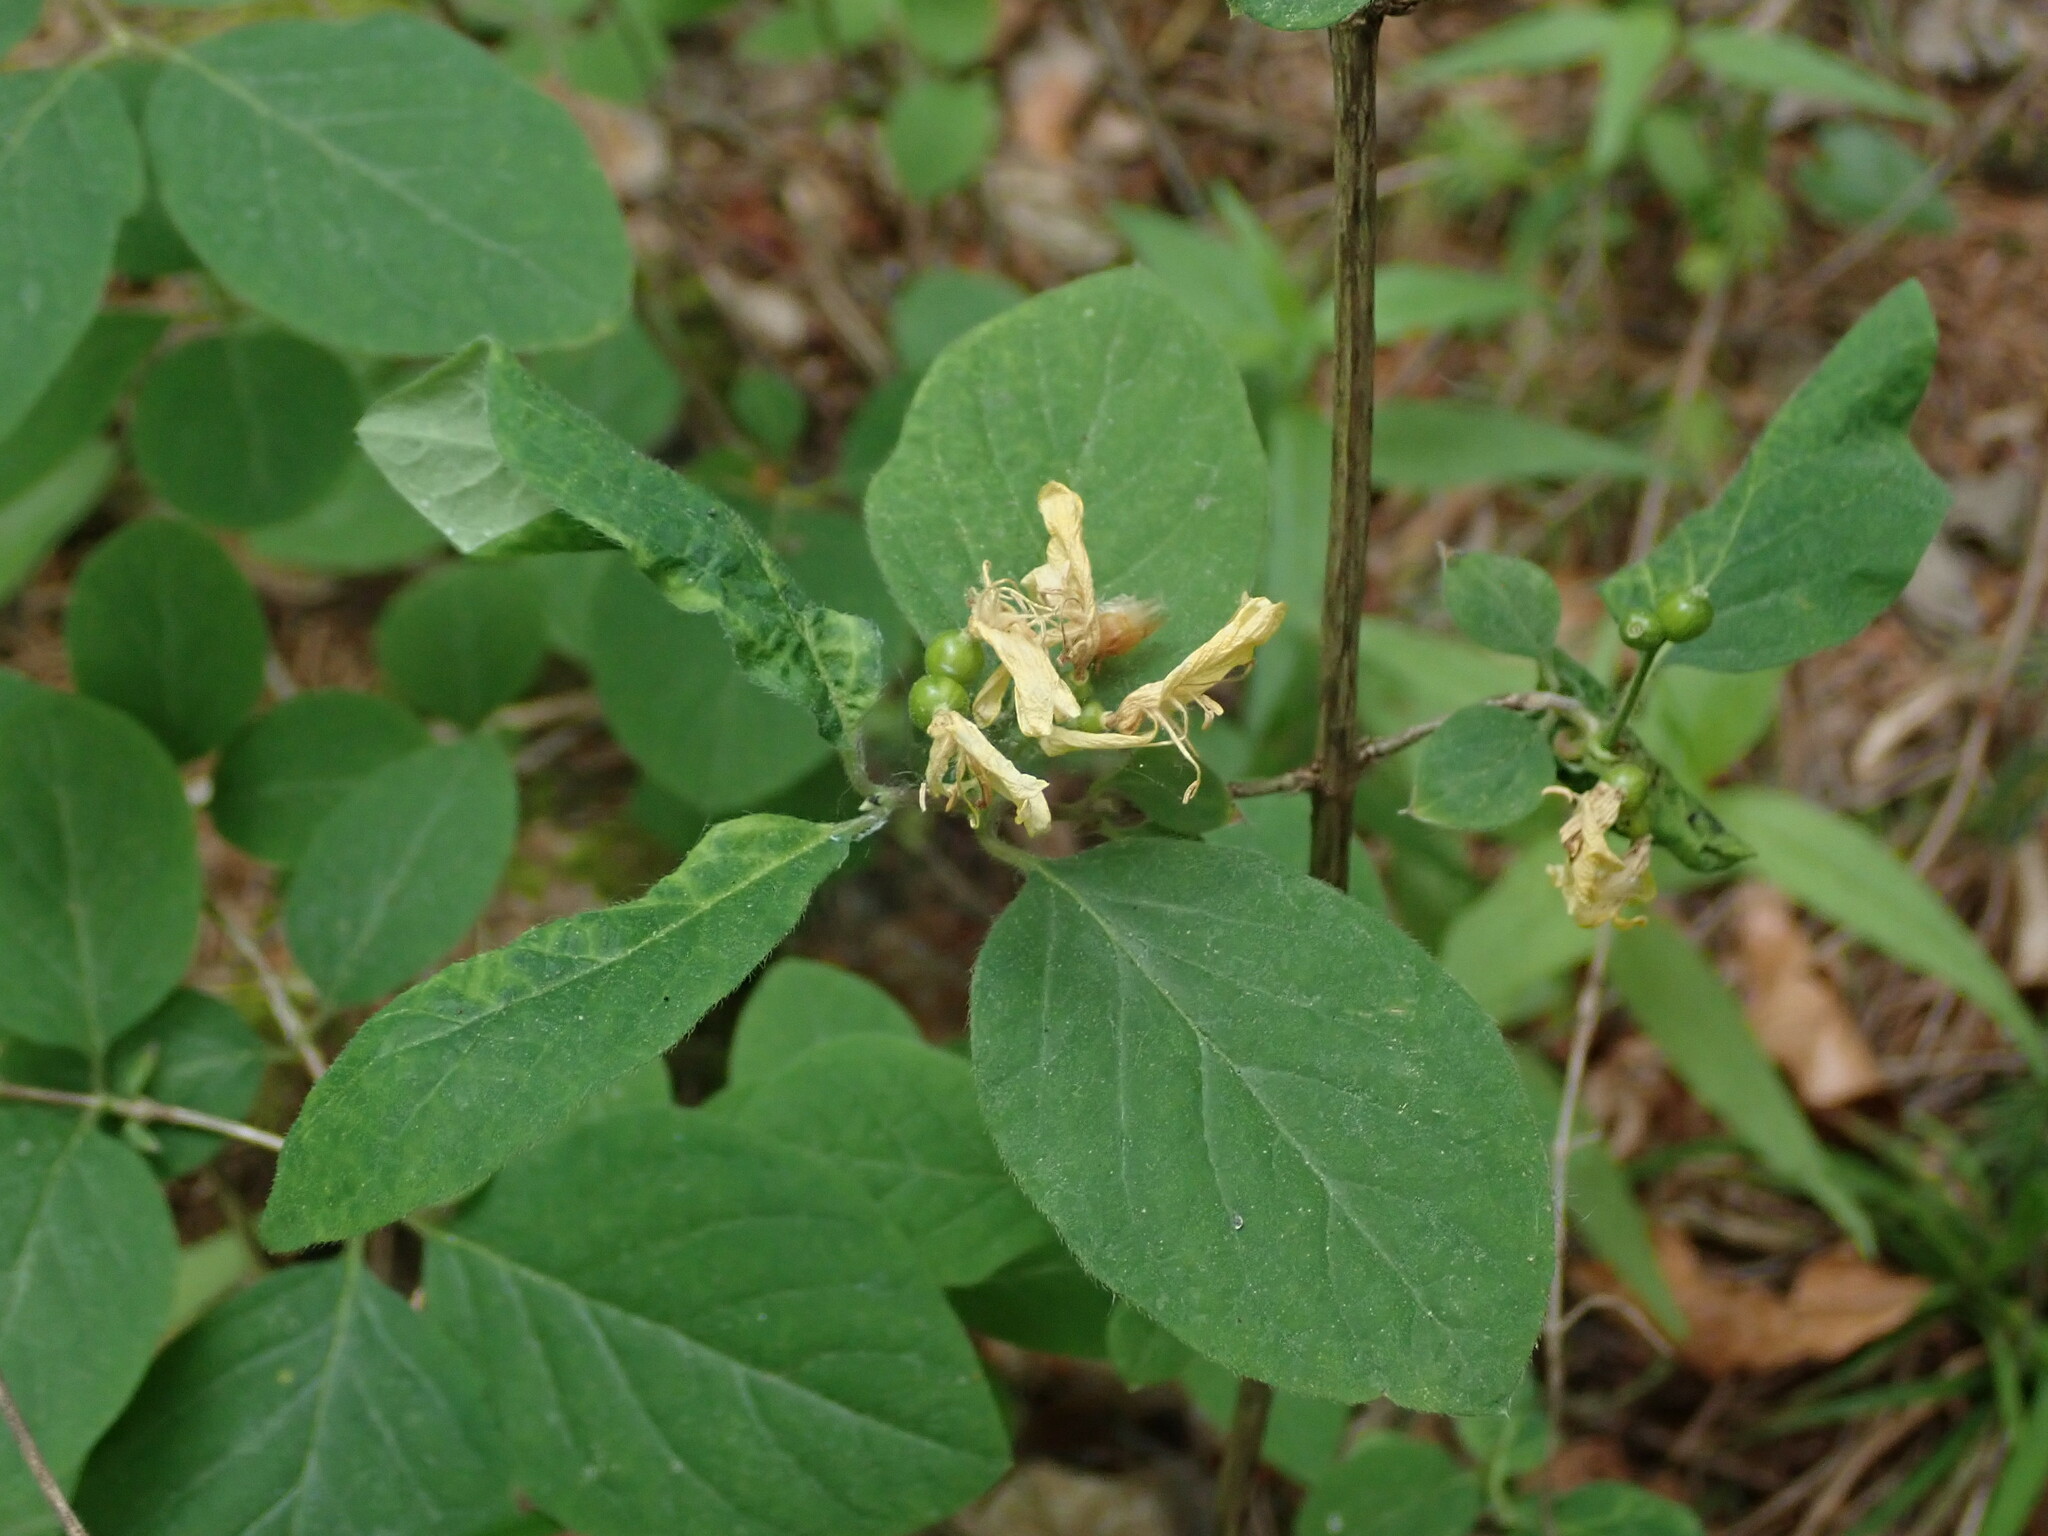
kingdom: Plantae
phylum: Tracheophyta
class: Magnoliopsida
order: Dipsacales
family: Caprifoliaceae
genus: Lonicera
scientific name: Lonicera xylosteum
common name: Fly honeysuckle
